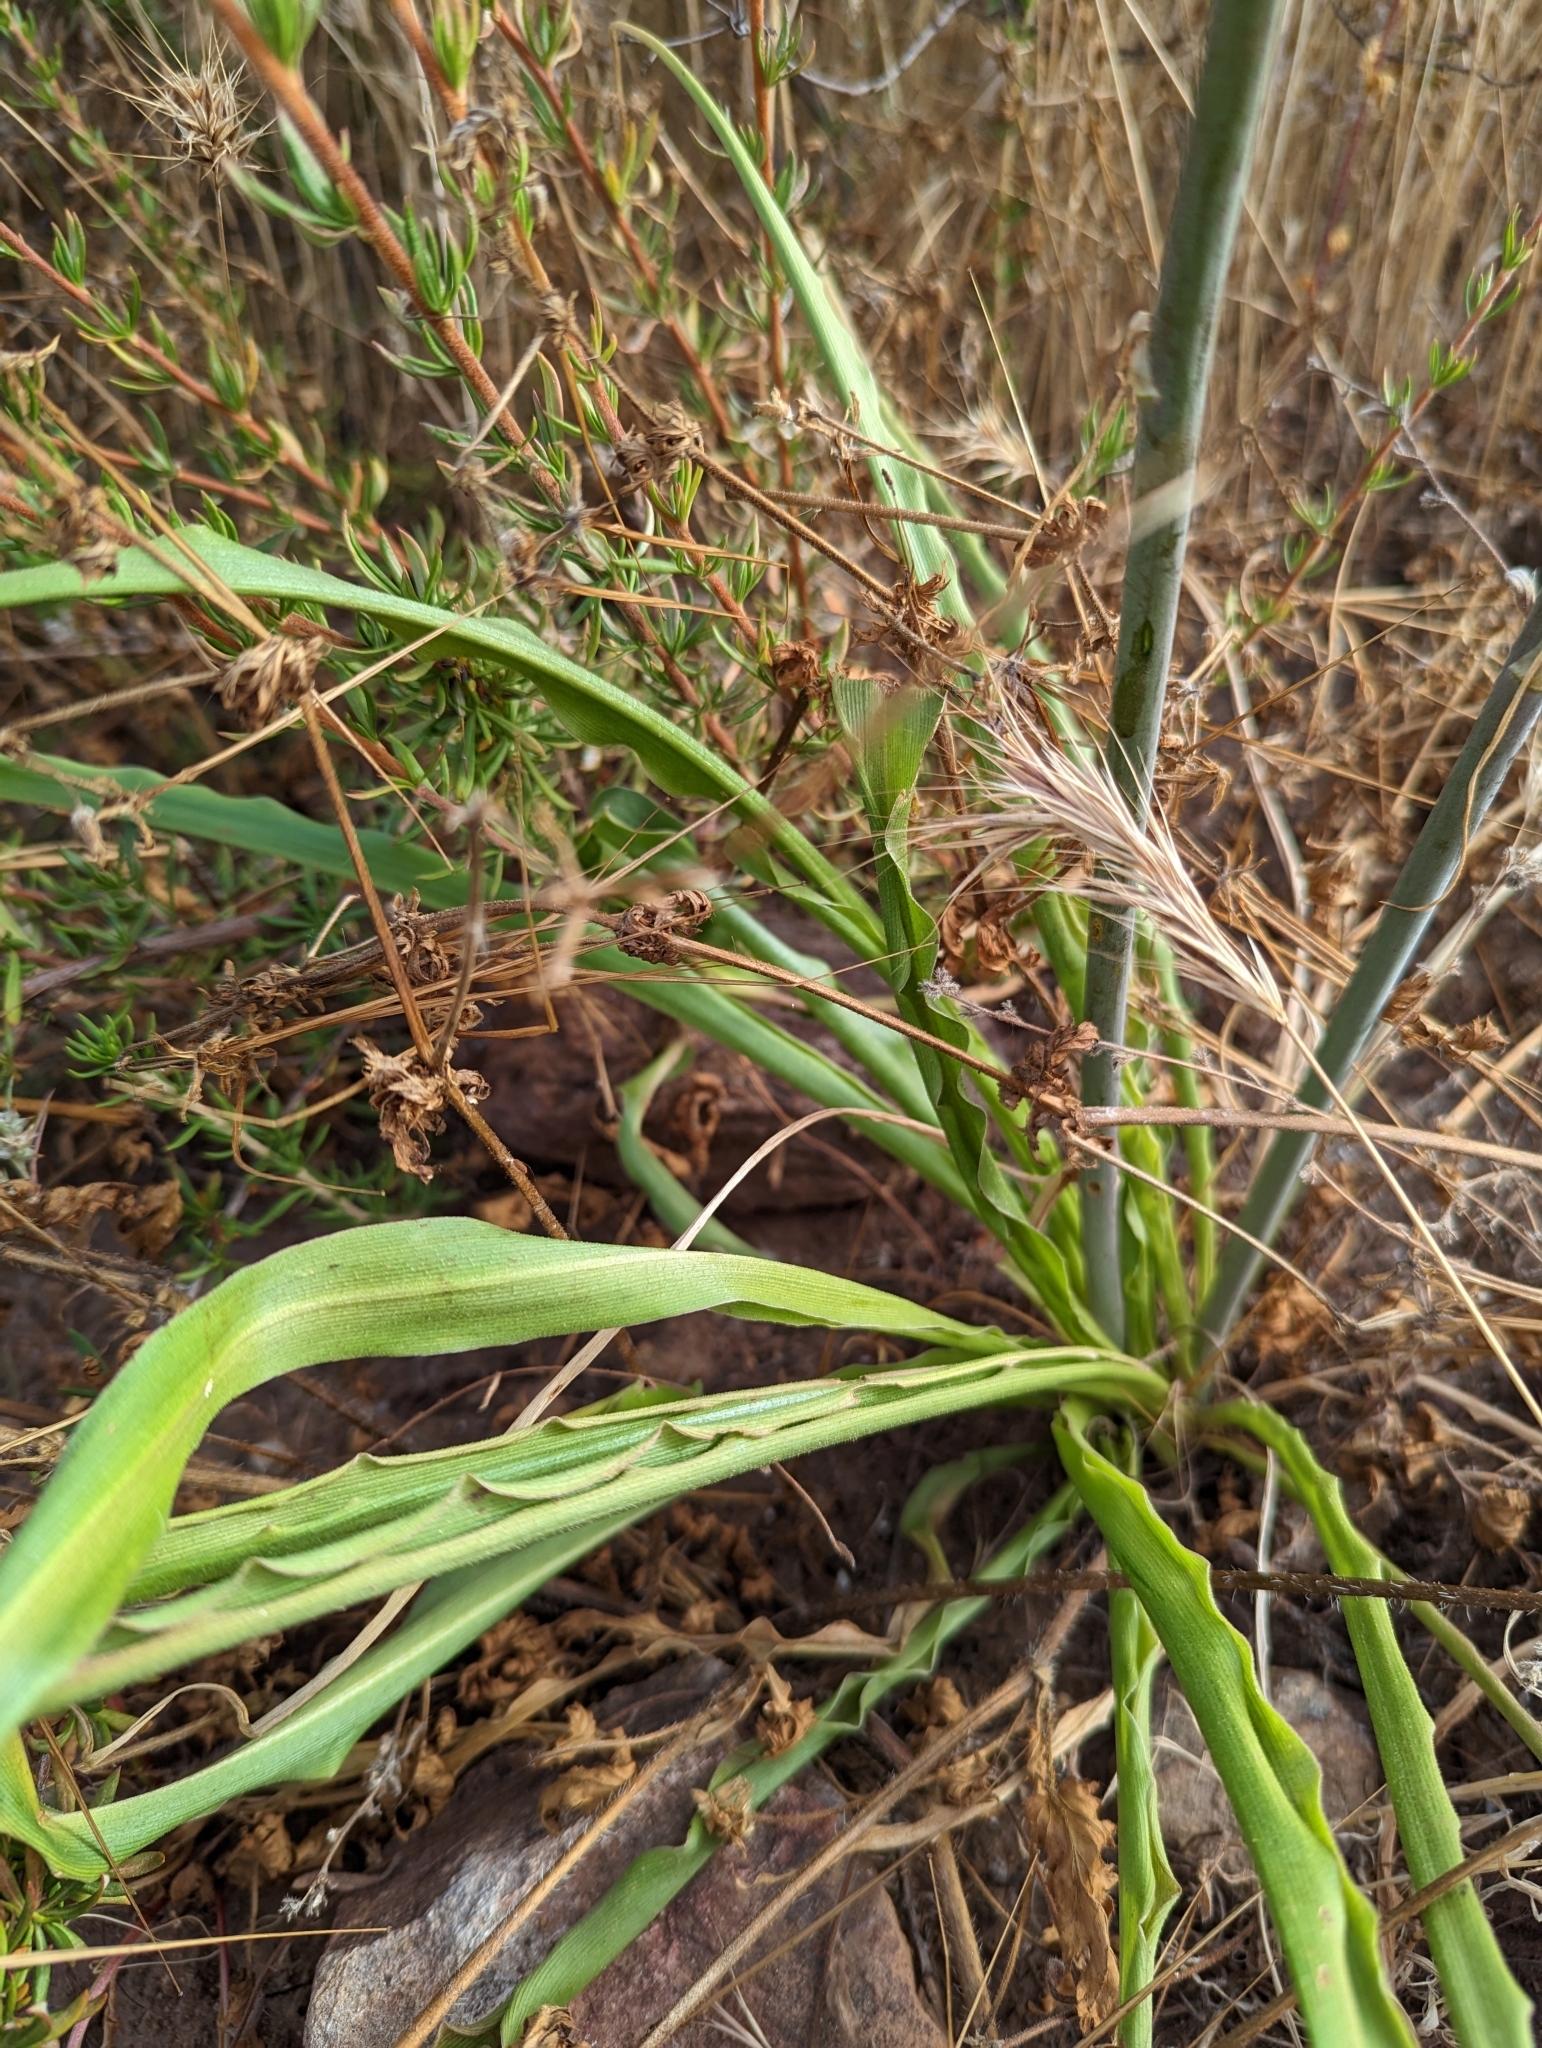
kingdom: Plantae
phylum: Tracheophyta
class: Liliopsida
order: Asparagales
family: Asparagaceae
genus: Hooveria
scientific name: Hooveria parviflora
